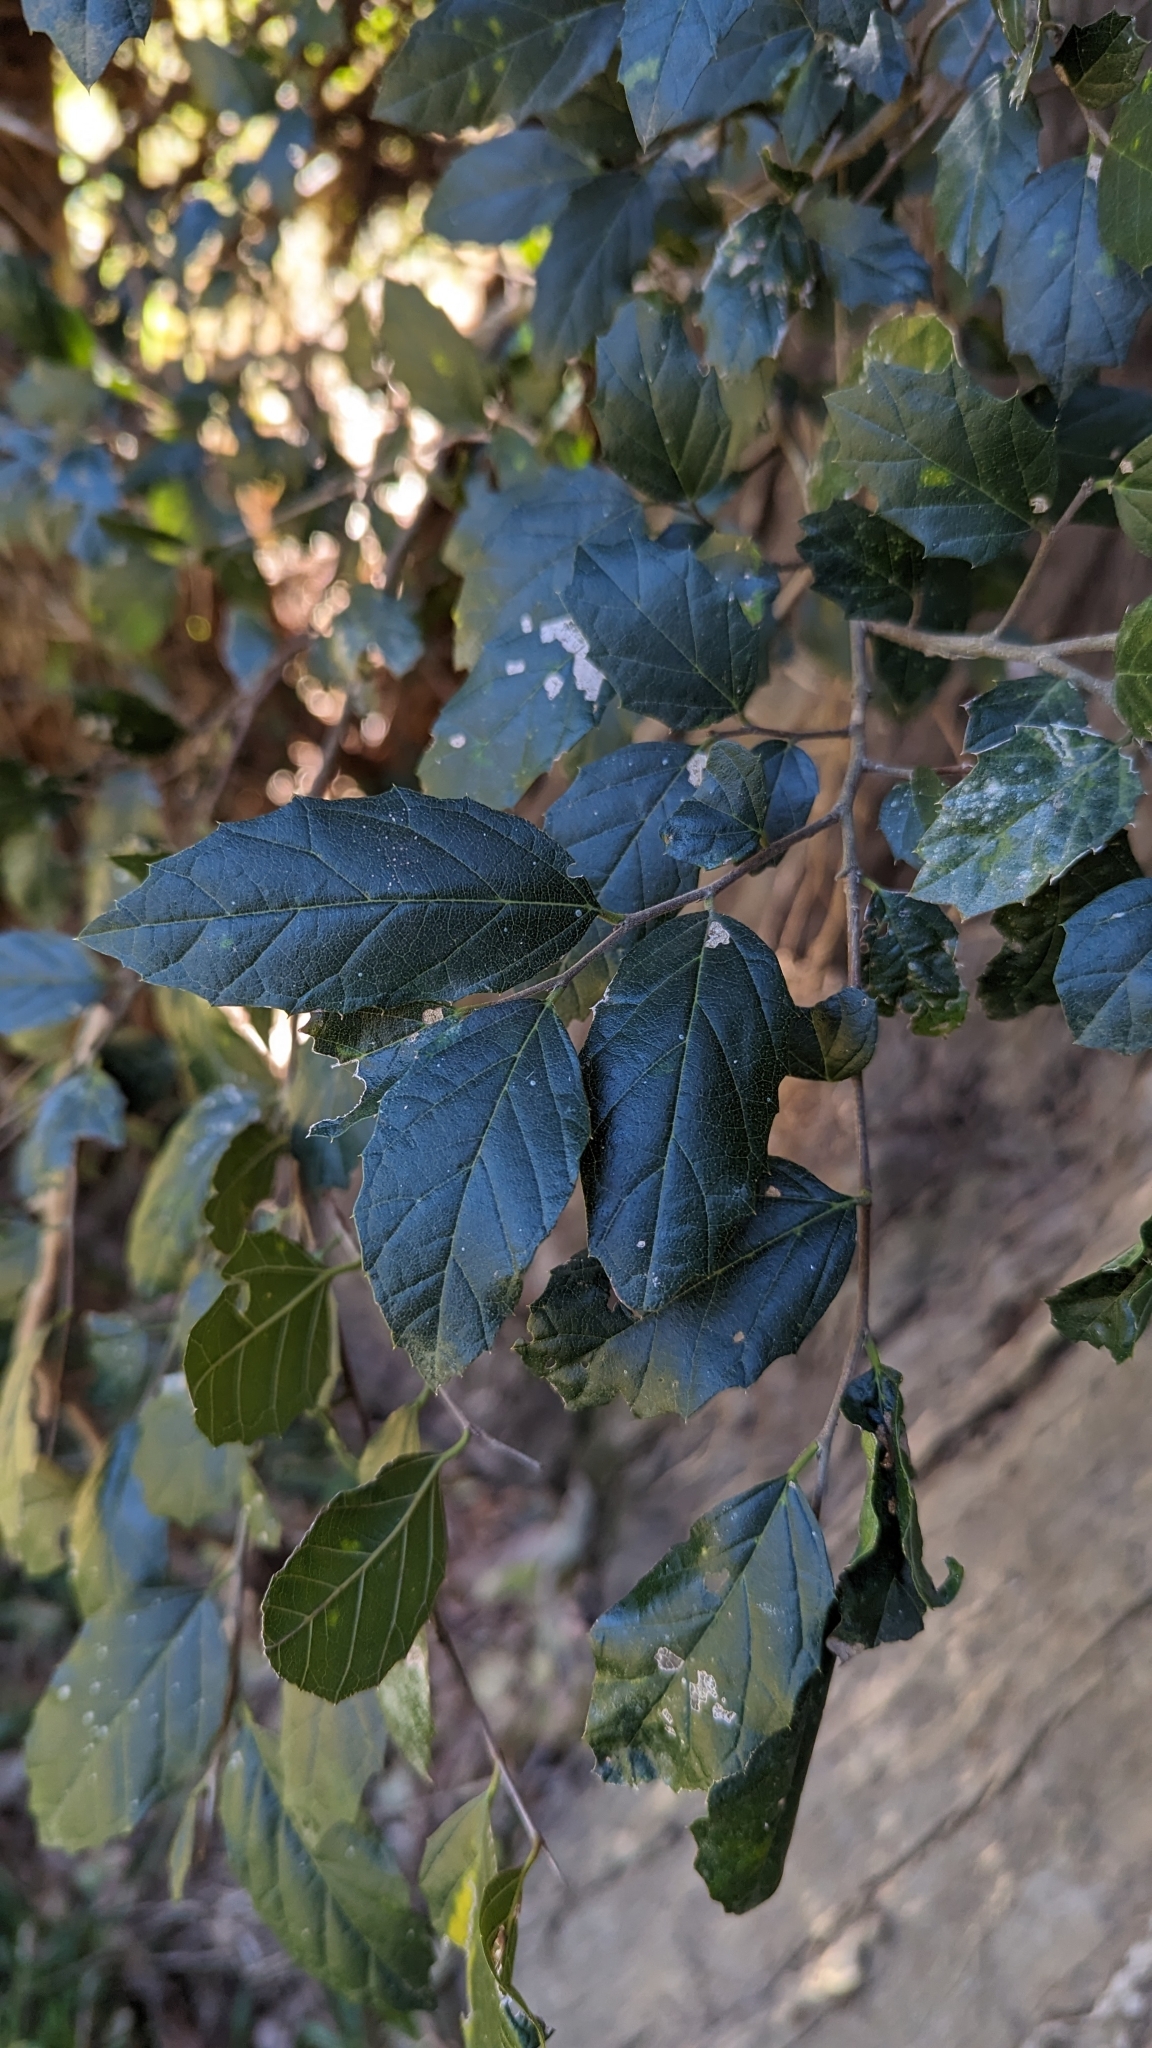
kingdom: Plantae
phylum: Tracheophyta
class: Magnoliopsida
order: Rosales
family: Cannabaceae
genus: Aphananthe
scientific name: Aphananthe philippinensis
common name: Wild holly
